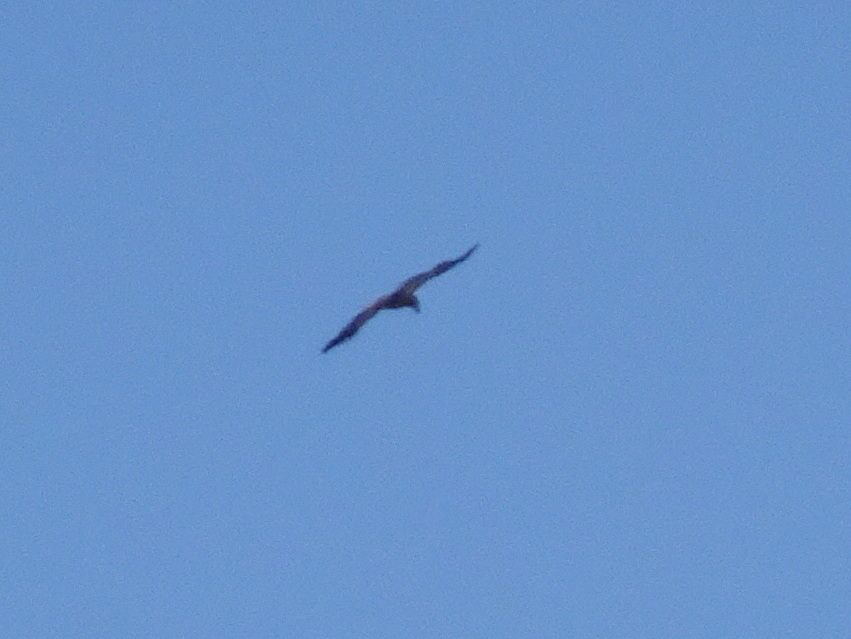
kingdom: Animalia
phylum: Chordata
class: Aves
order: Accipitriformes
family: Accipitridae
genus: Haliaeetus
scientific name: Haliaeetus leucocephalus
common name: Bald eagle
